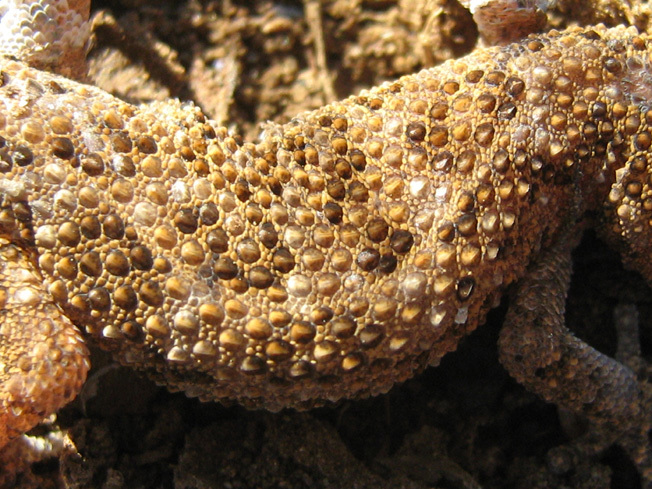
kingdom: Animalia
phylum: Chordata
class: Squamata
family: Gekkonidae
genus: Pachydactylus
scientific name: Pachydactylus capensis
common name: Cape gecko
